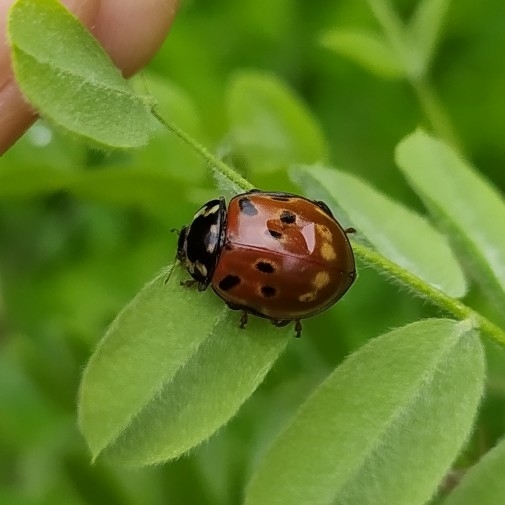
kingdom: Animalia
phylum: Arthropoda
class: Insecta
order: Coleoptera
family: Coccinellidae
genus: Anatis
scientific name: Anatis ocellata
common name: Eyed ladybird
